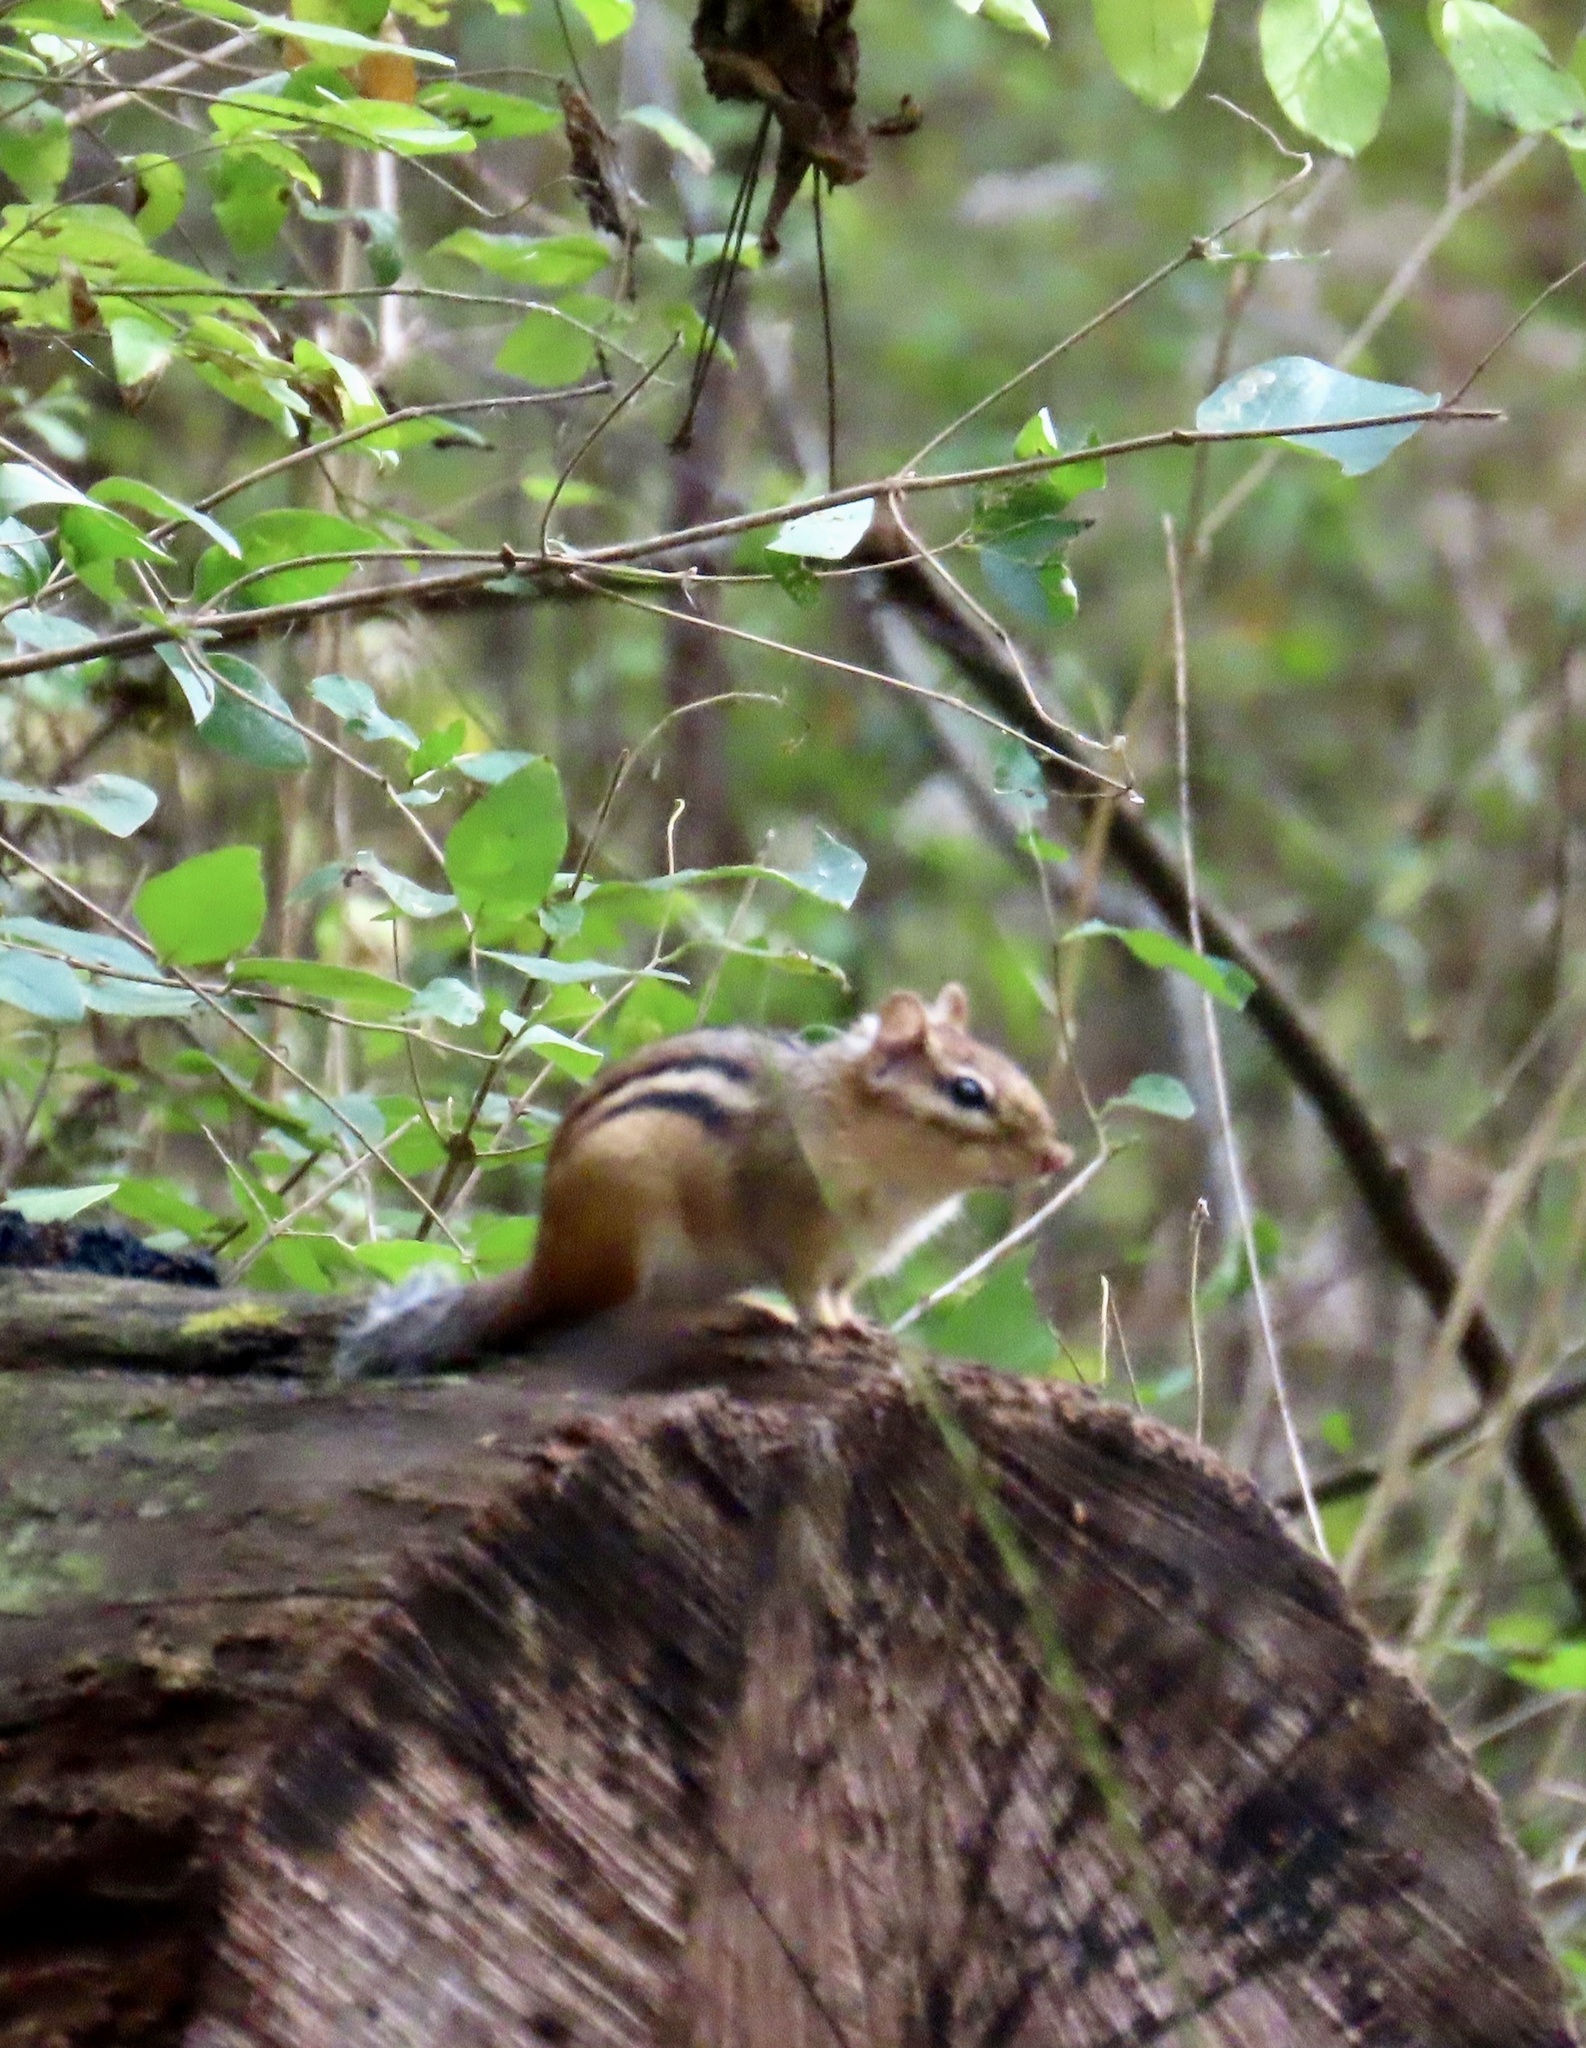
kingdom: Animalia
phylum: Chordata
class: Mammalia
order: Rodentia
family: Sciuridae
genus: Tamias
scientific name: Tamias striatus
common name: Eastern chipmunk
